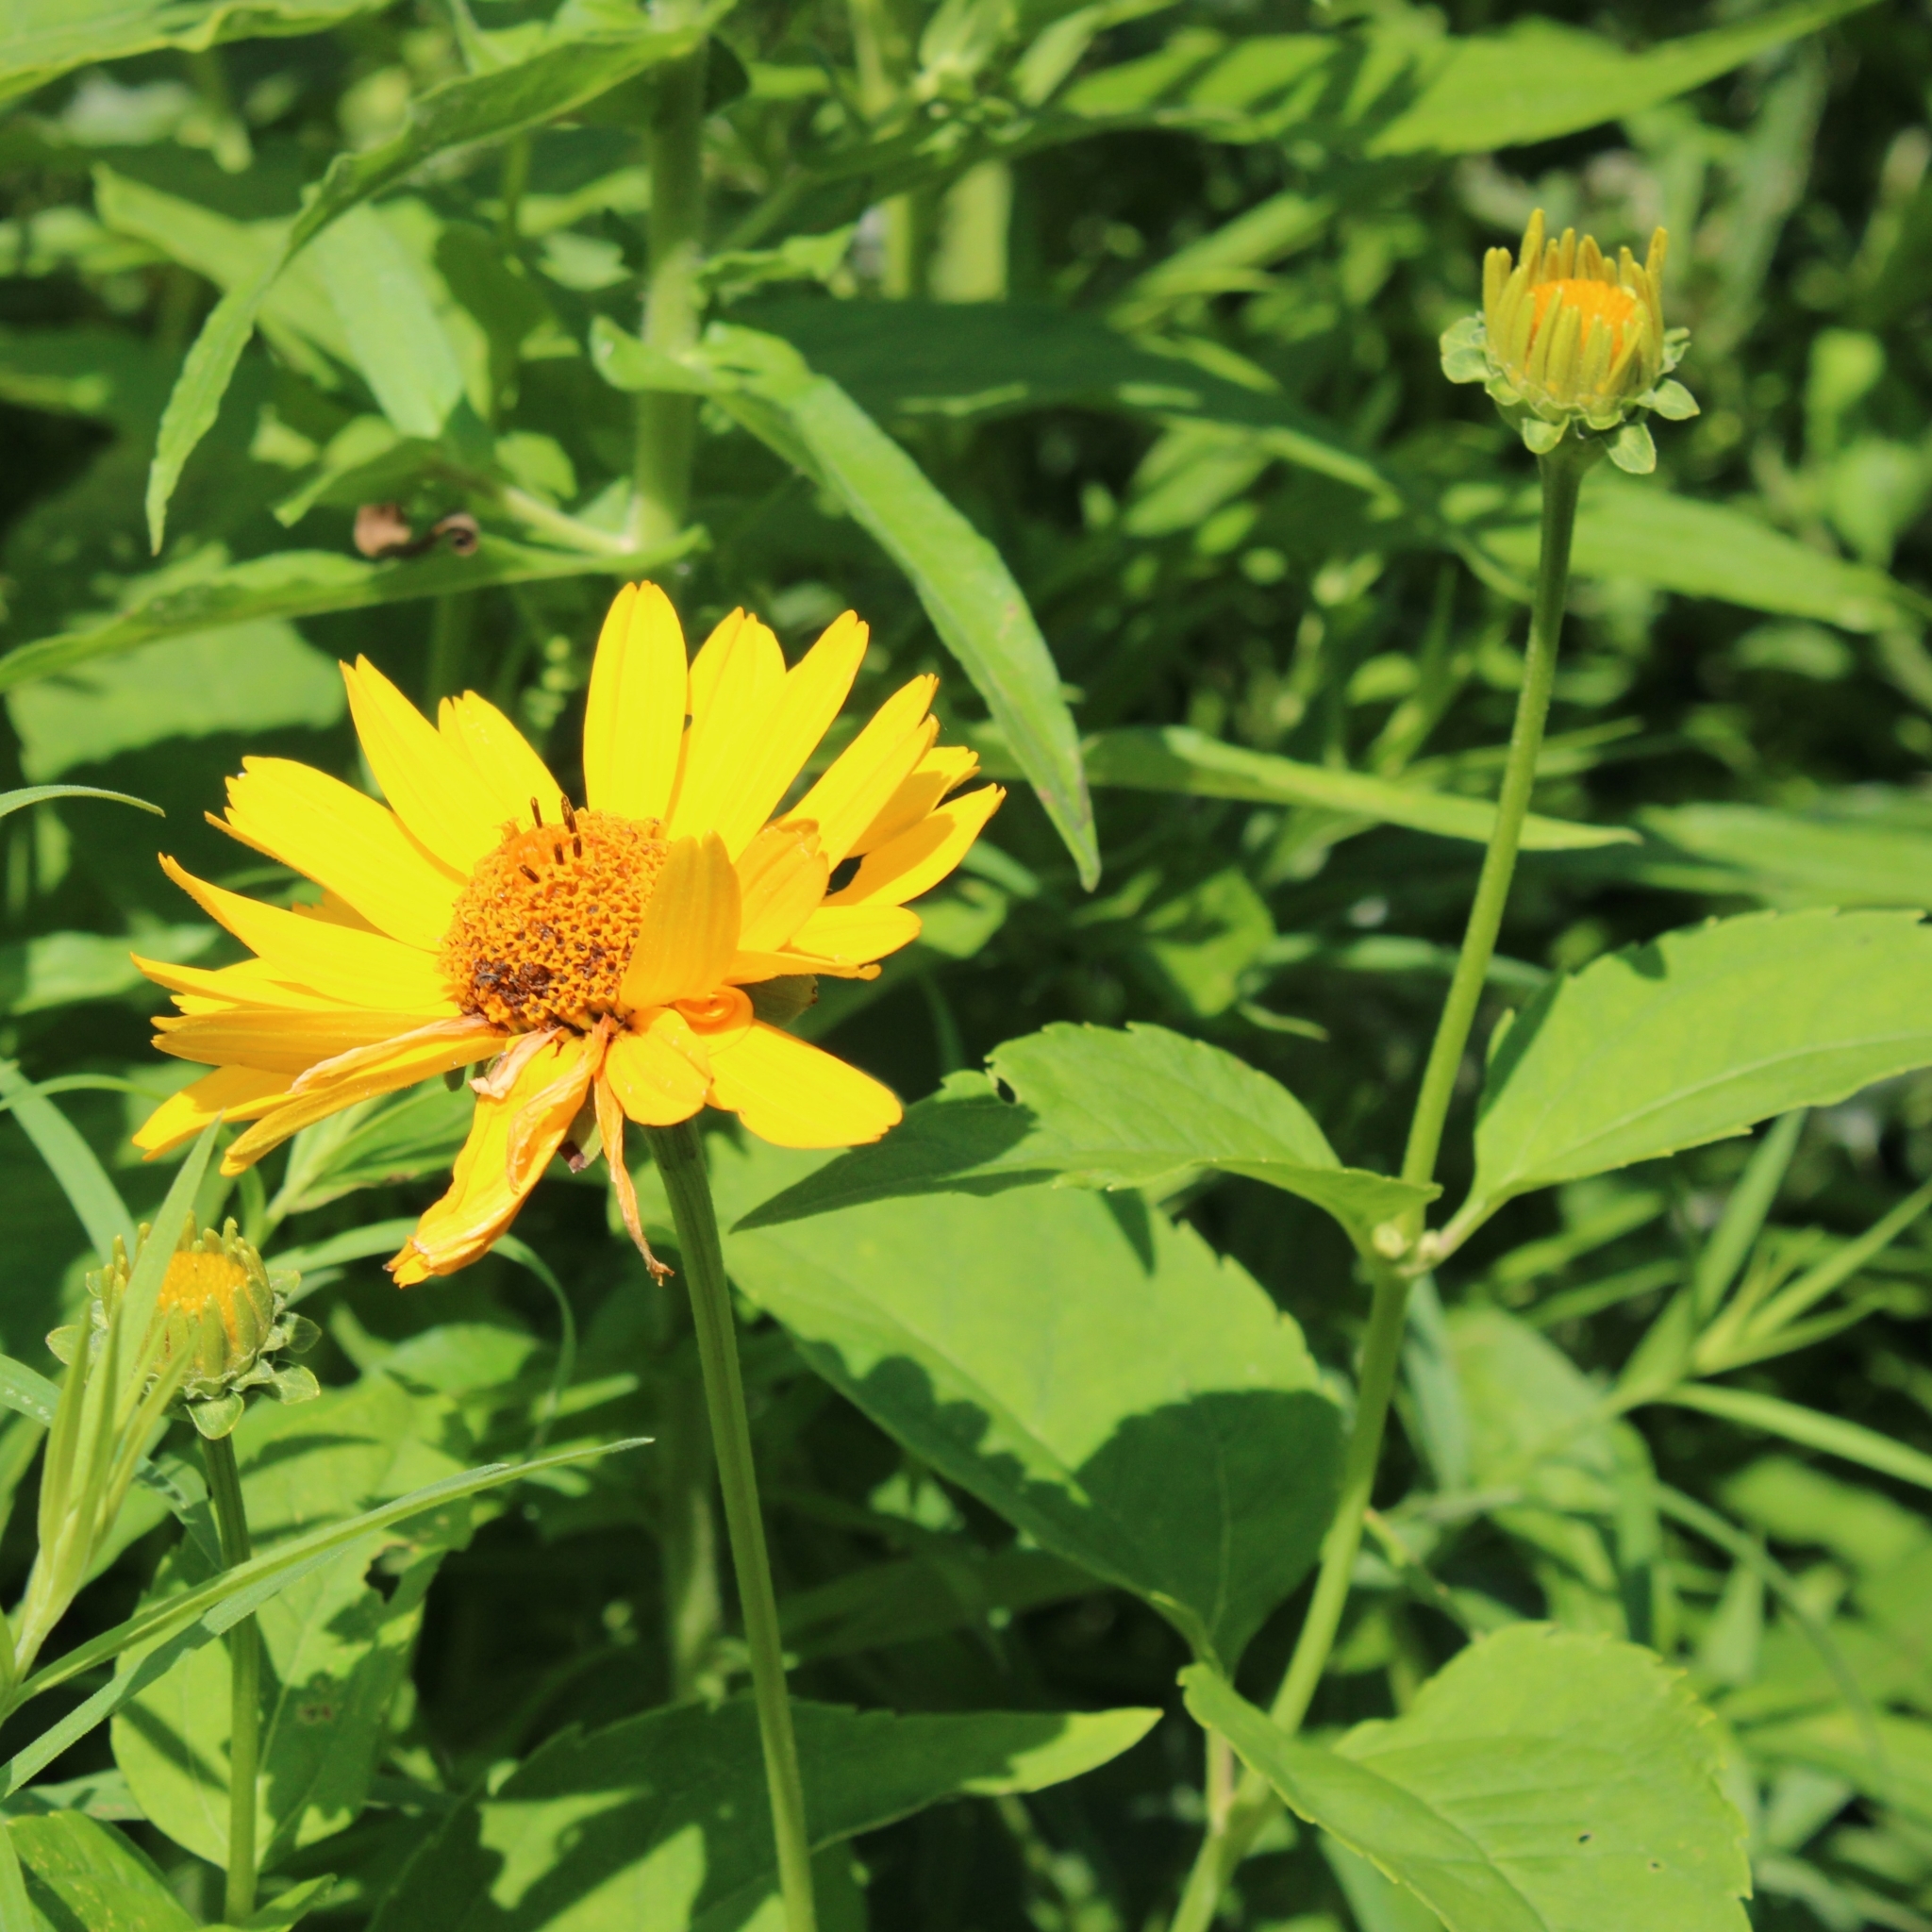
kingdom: Plantae
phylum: Tracheophyta
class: Magnoliopsida
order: Asterales
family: Asteraceae
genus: Heliopsis
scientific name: Heliopsis helianthoides
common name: False sunflower
